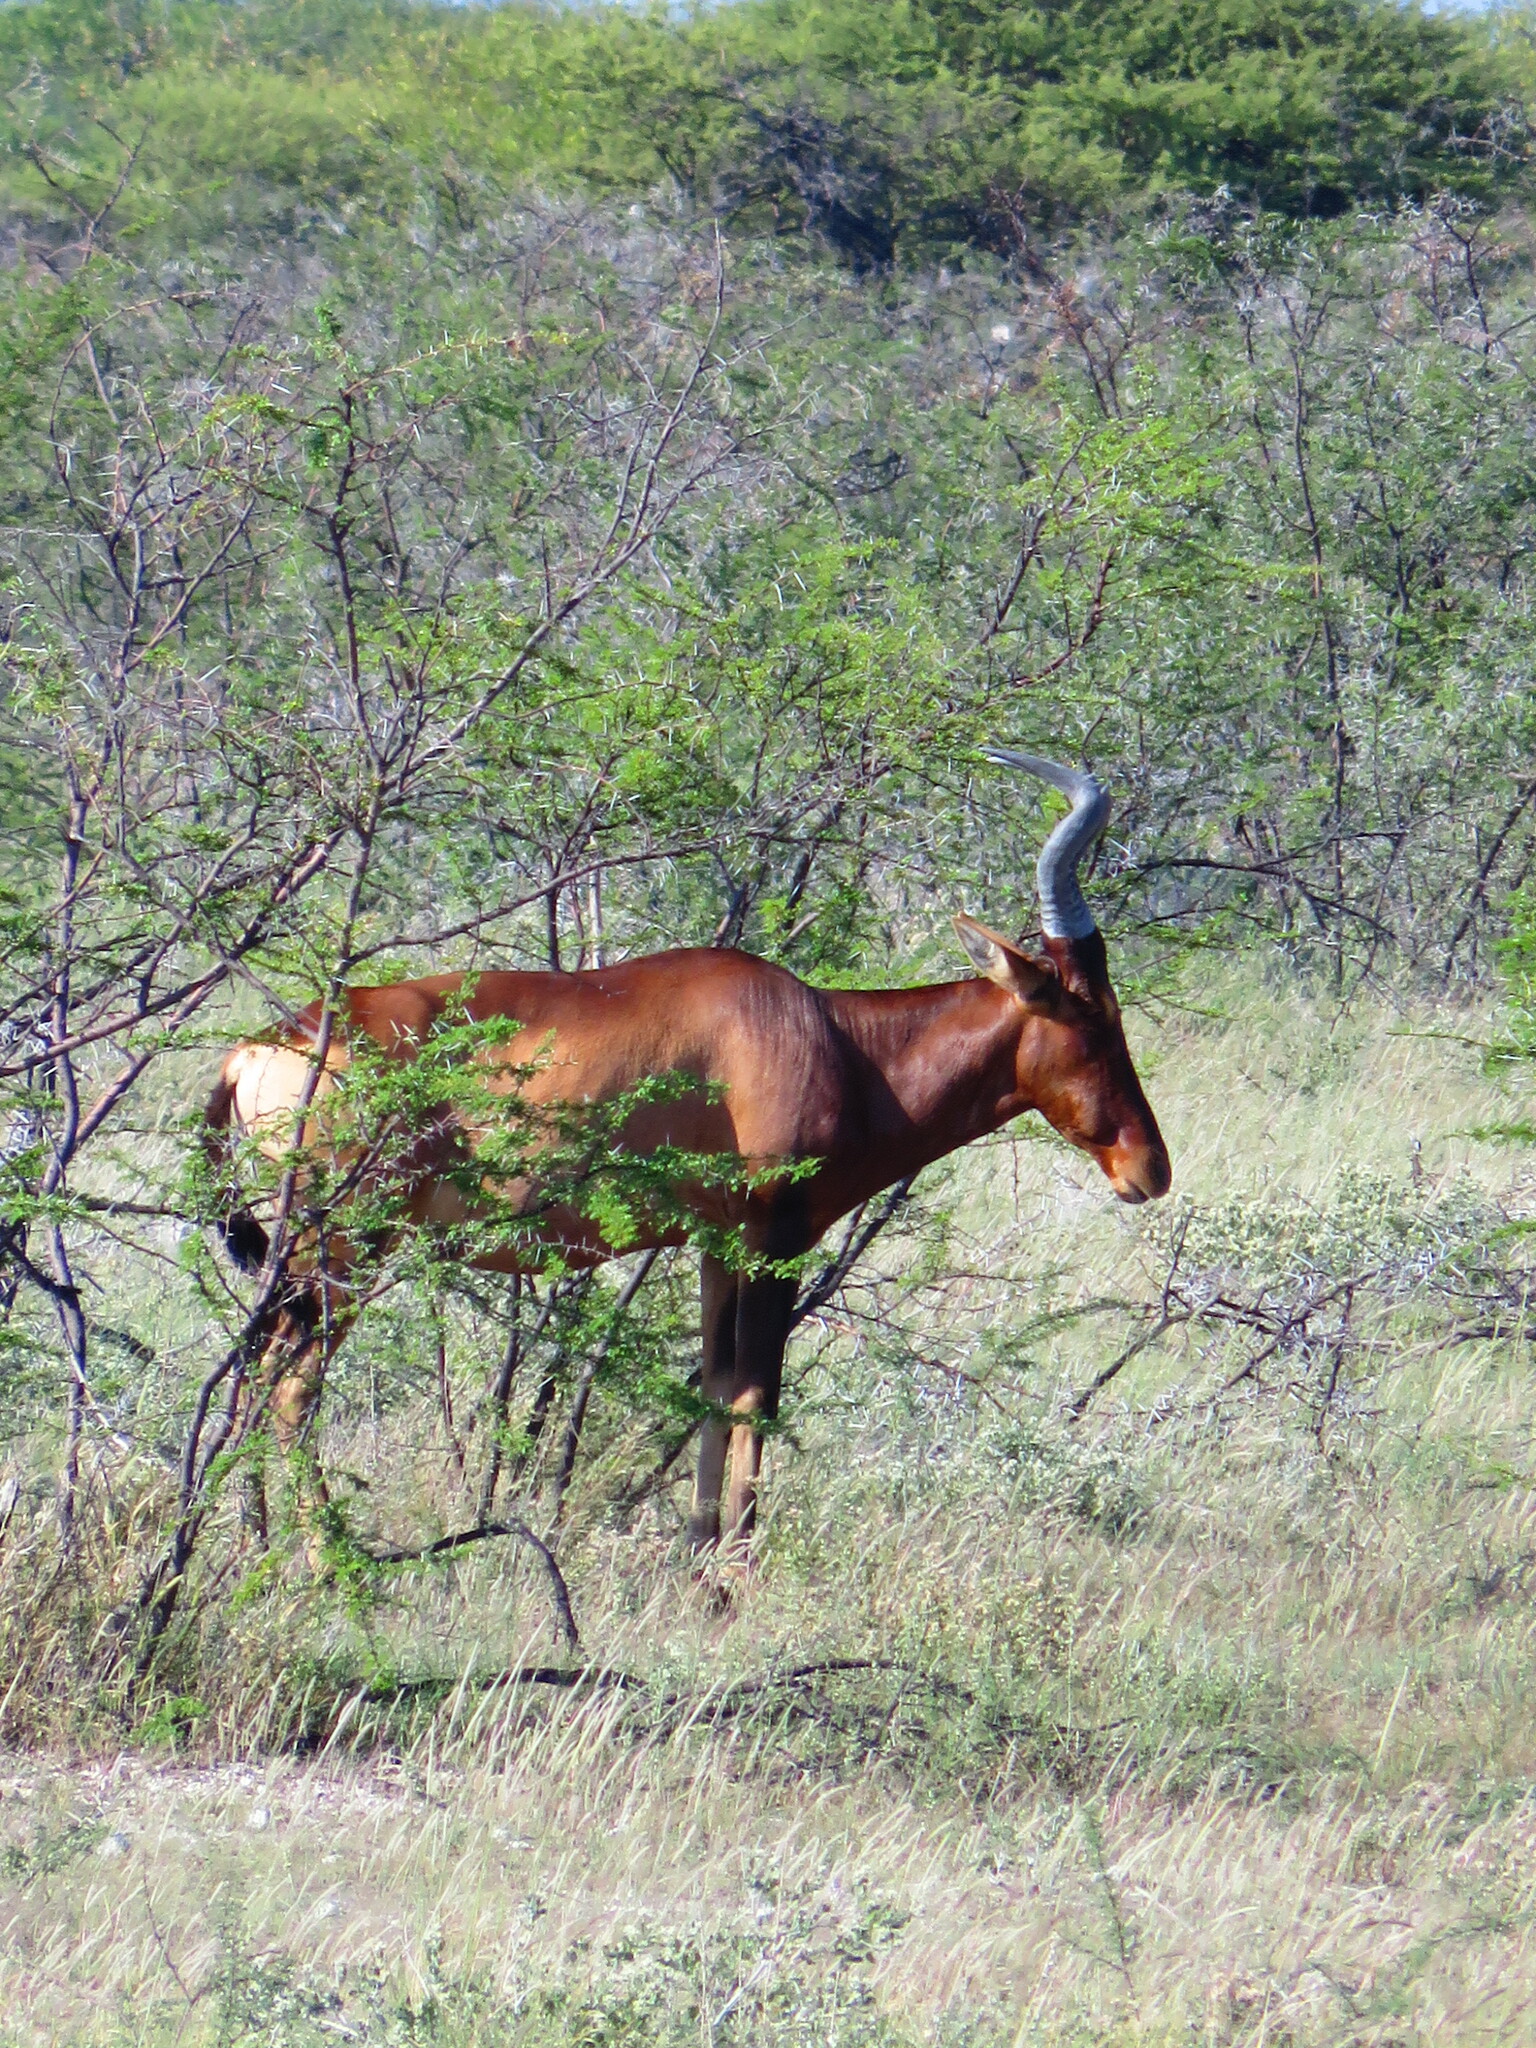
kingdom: Animalia
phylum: Chordata
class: Mammalia
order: Artiodactyla
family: Bovidae
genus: Alcelaphus
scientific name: Alcelaphus caama
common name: Red hartebeest
